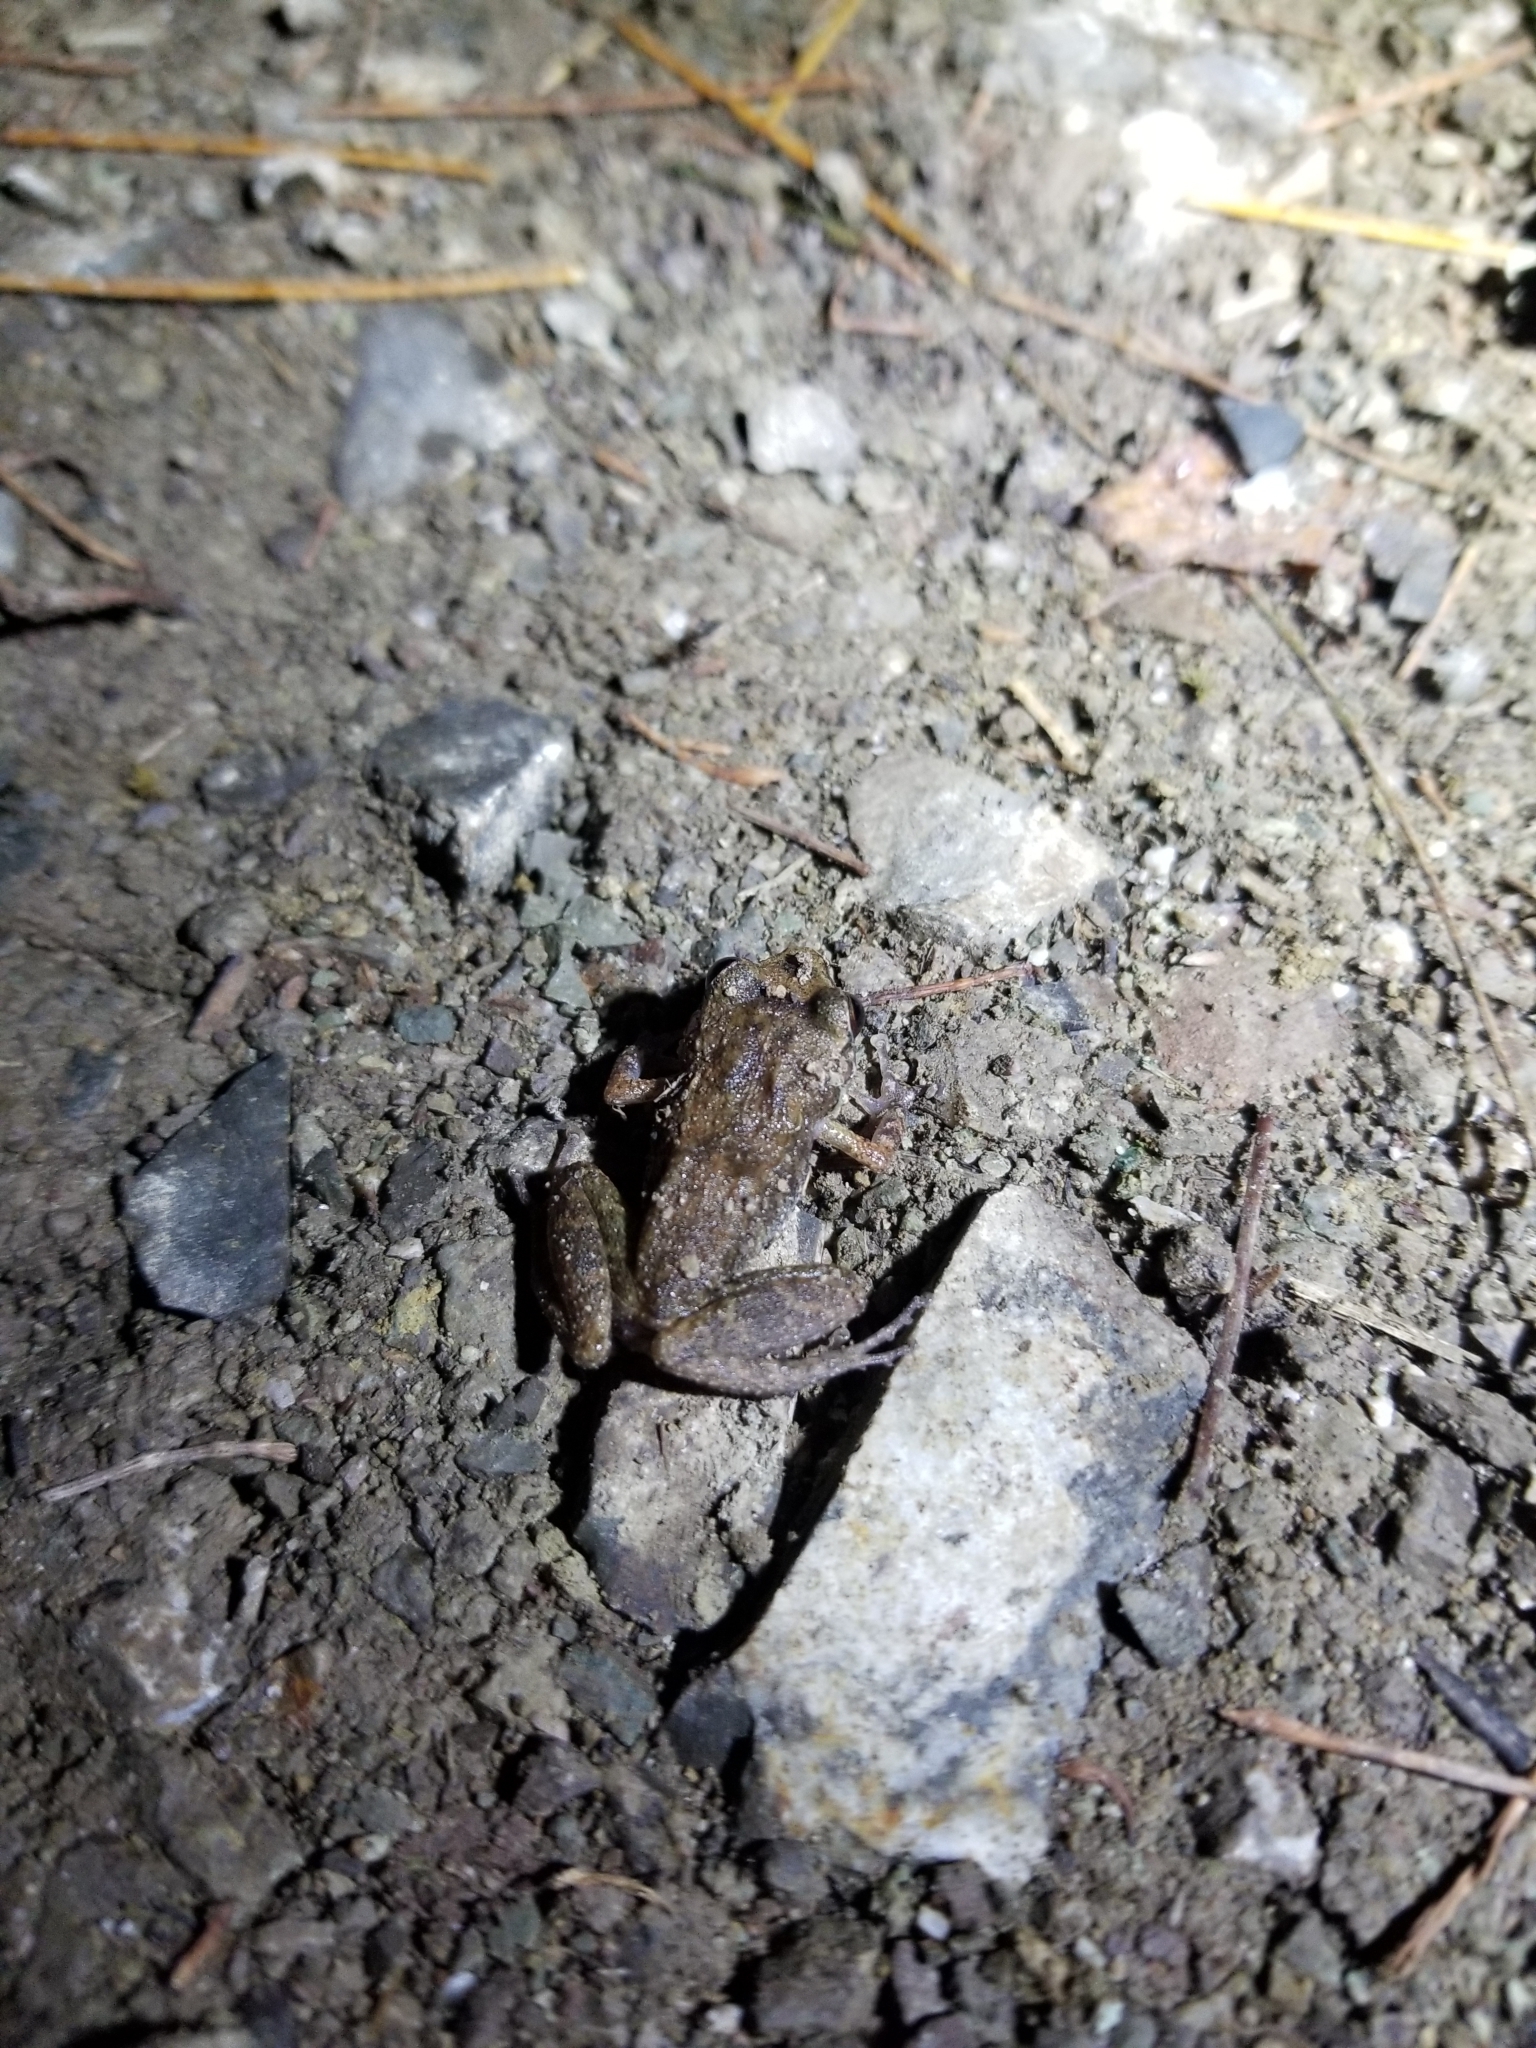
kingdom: Animalia
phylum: Chordata
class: Amphibia
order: Anura
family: Eleutherodactylidae
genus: Eleutherodactylus
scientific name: Eleutherodactylus abbotti
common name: Common chirping frog
